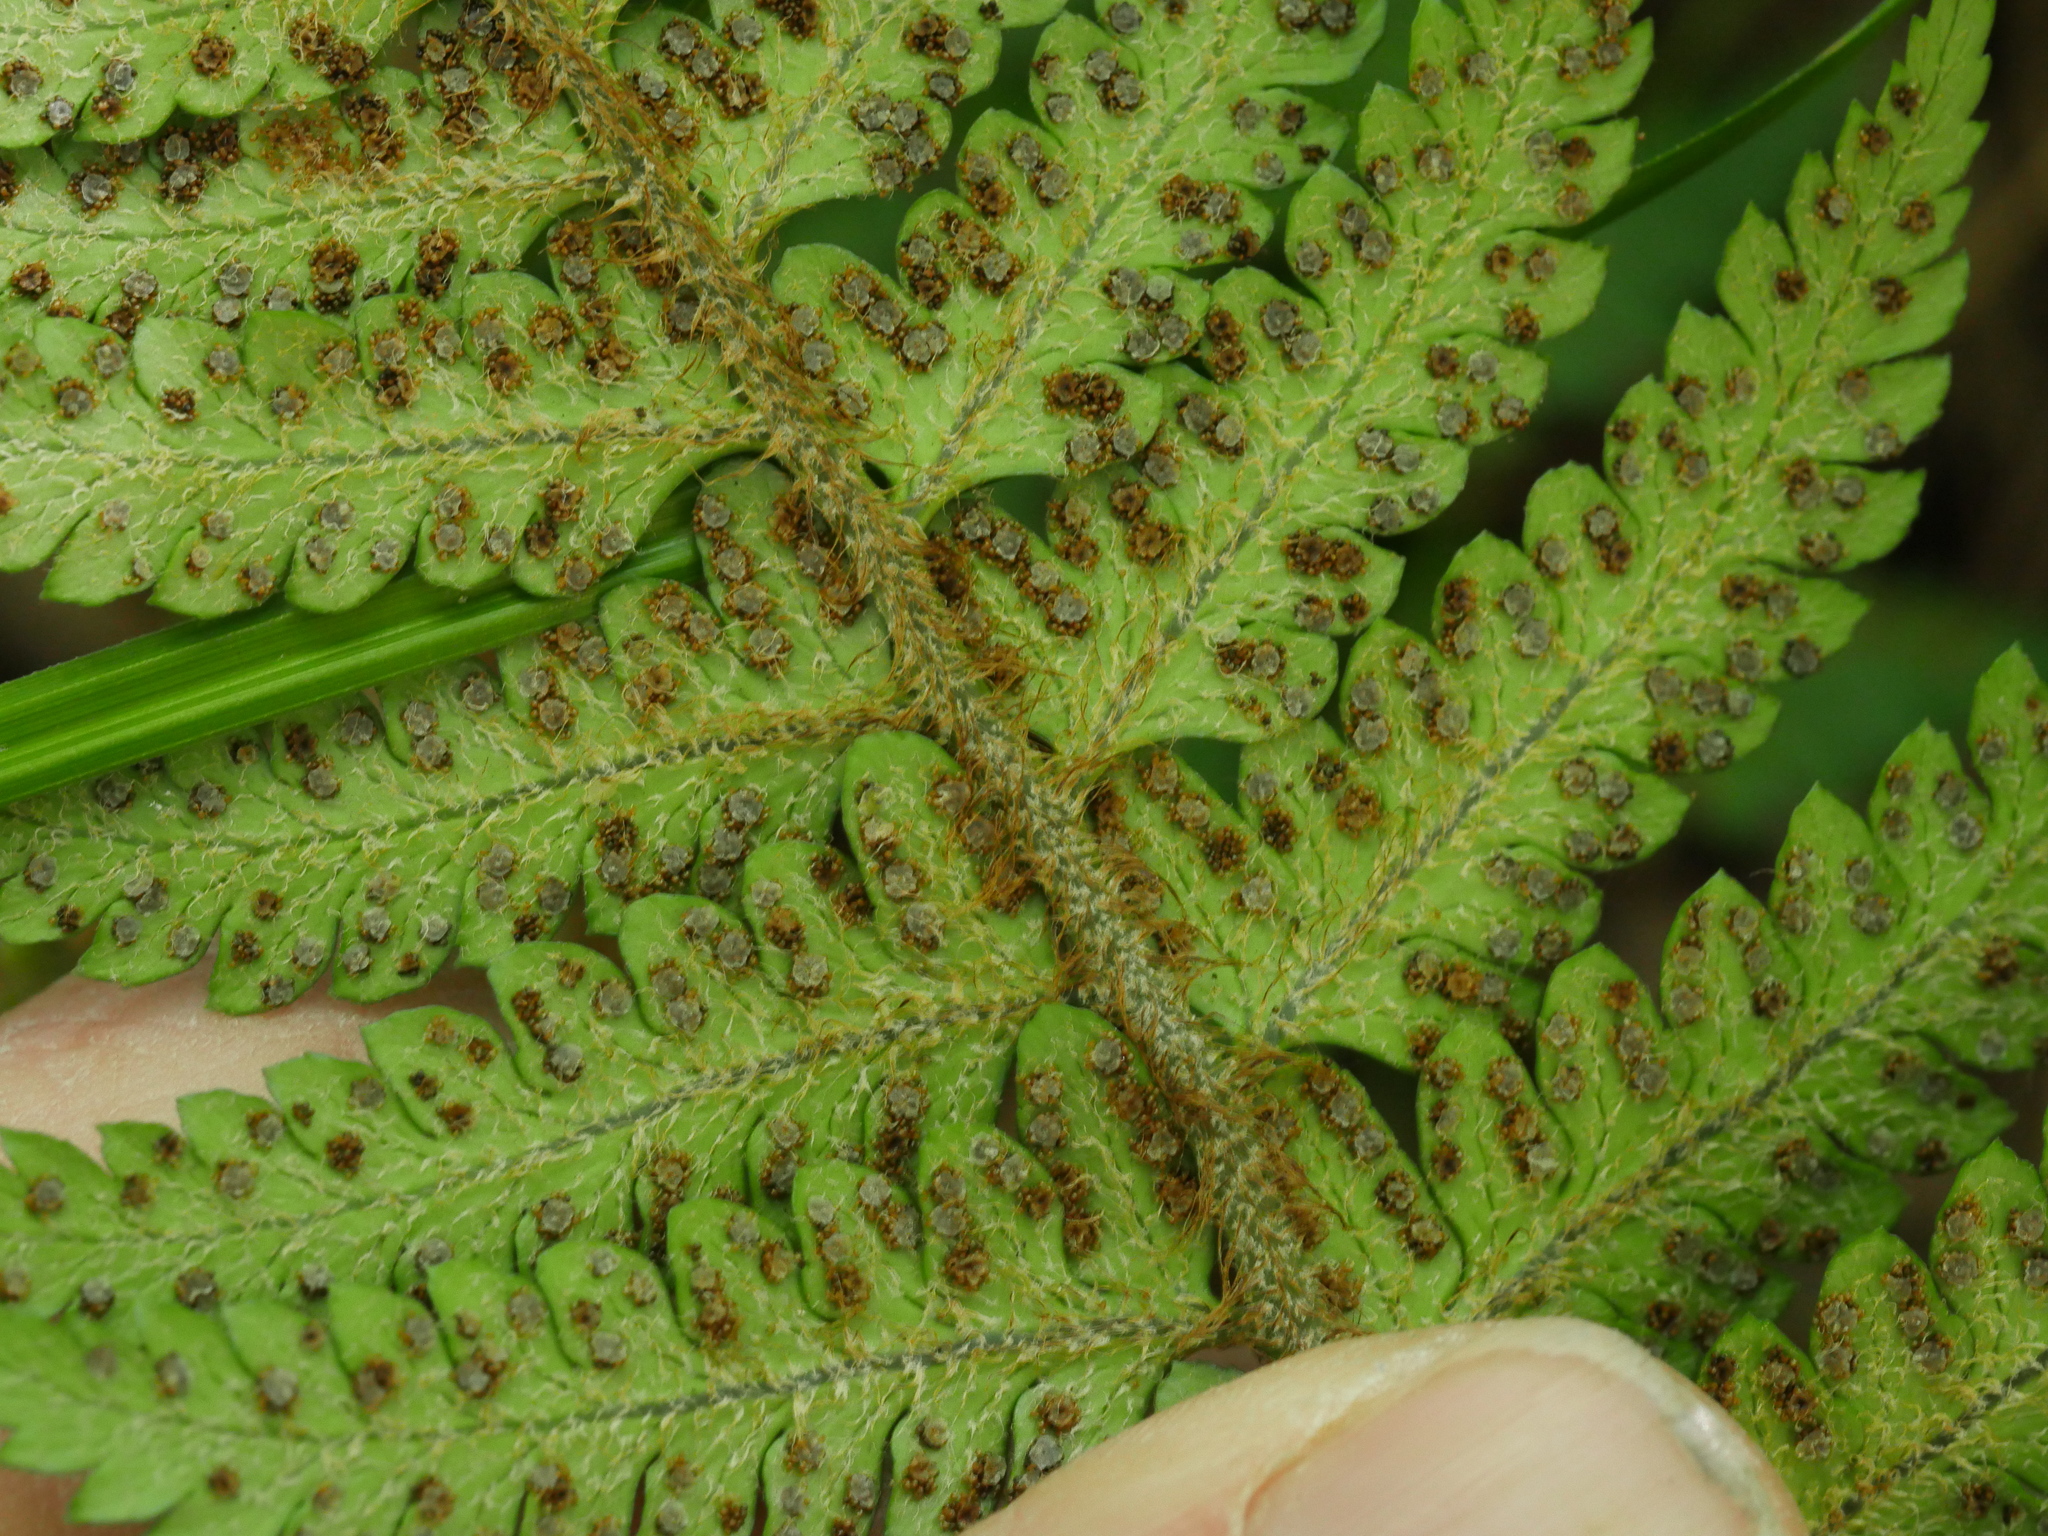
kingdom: Plantae
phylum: Tracheophyta
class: Polypodiopsida
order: Polypodiales
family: Dryopteridaceae
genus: Polystichum
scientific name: Polystichum wawranum
